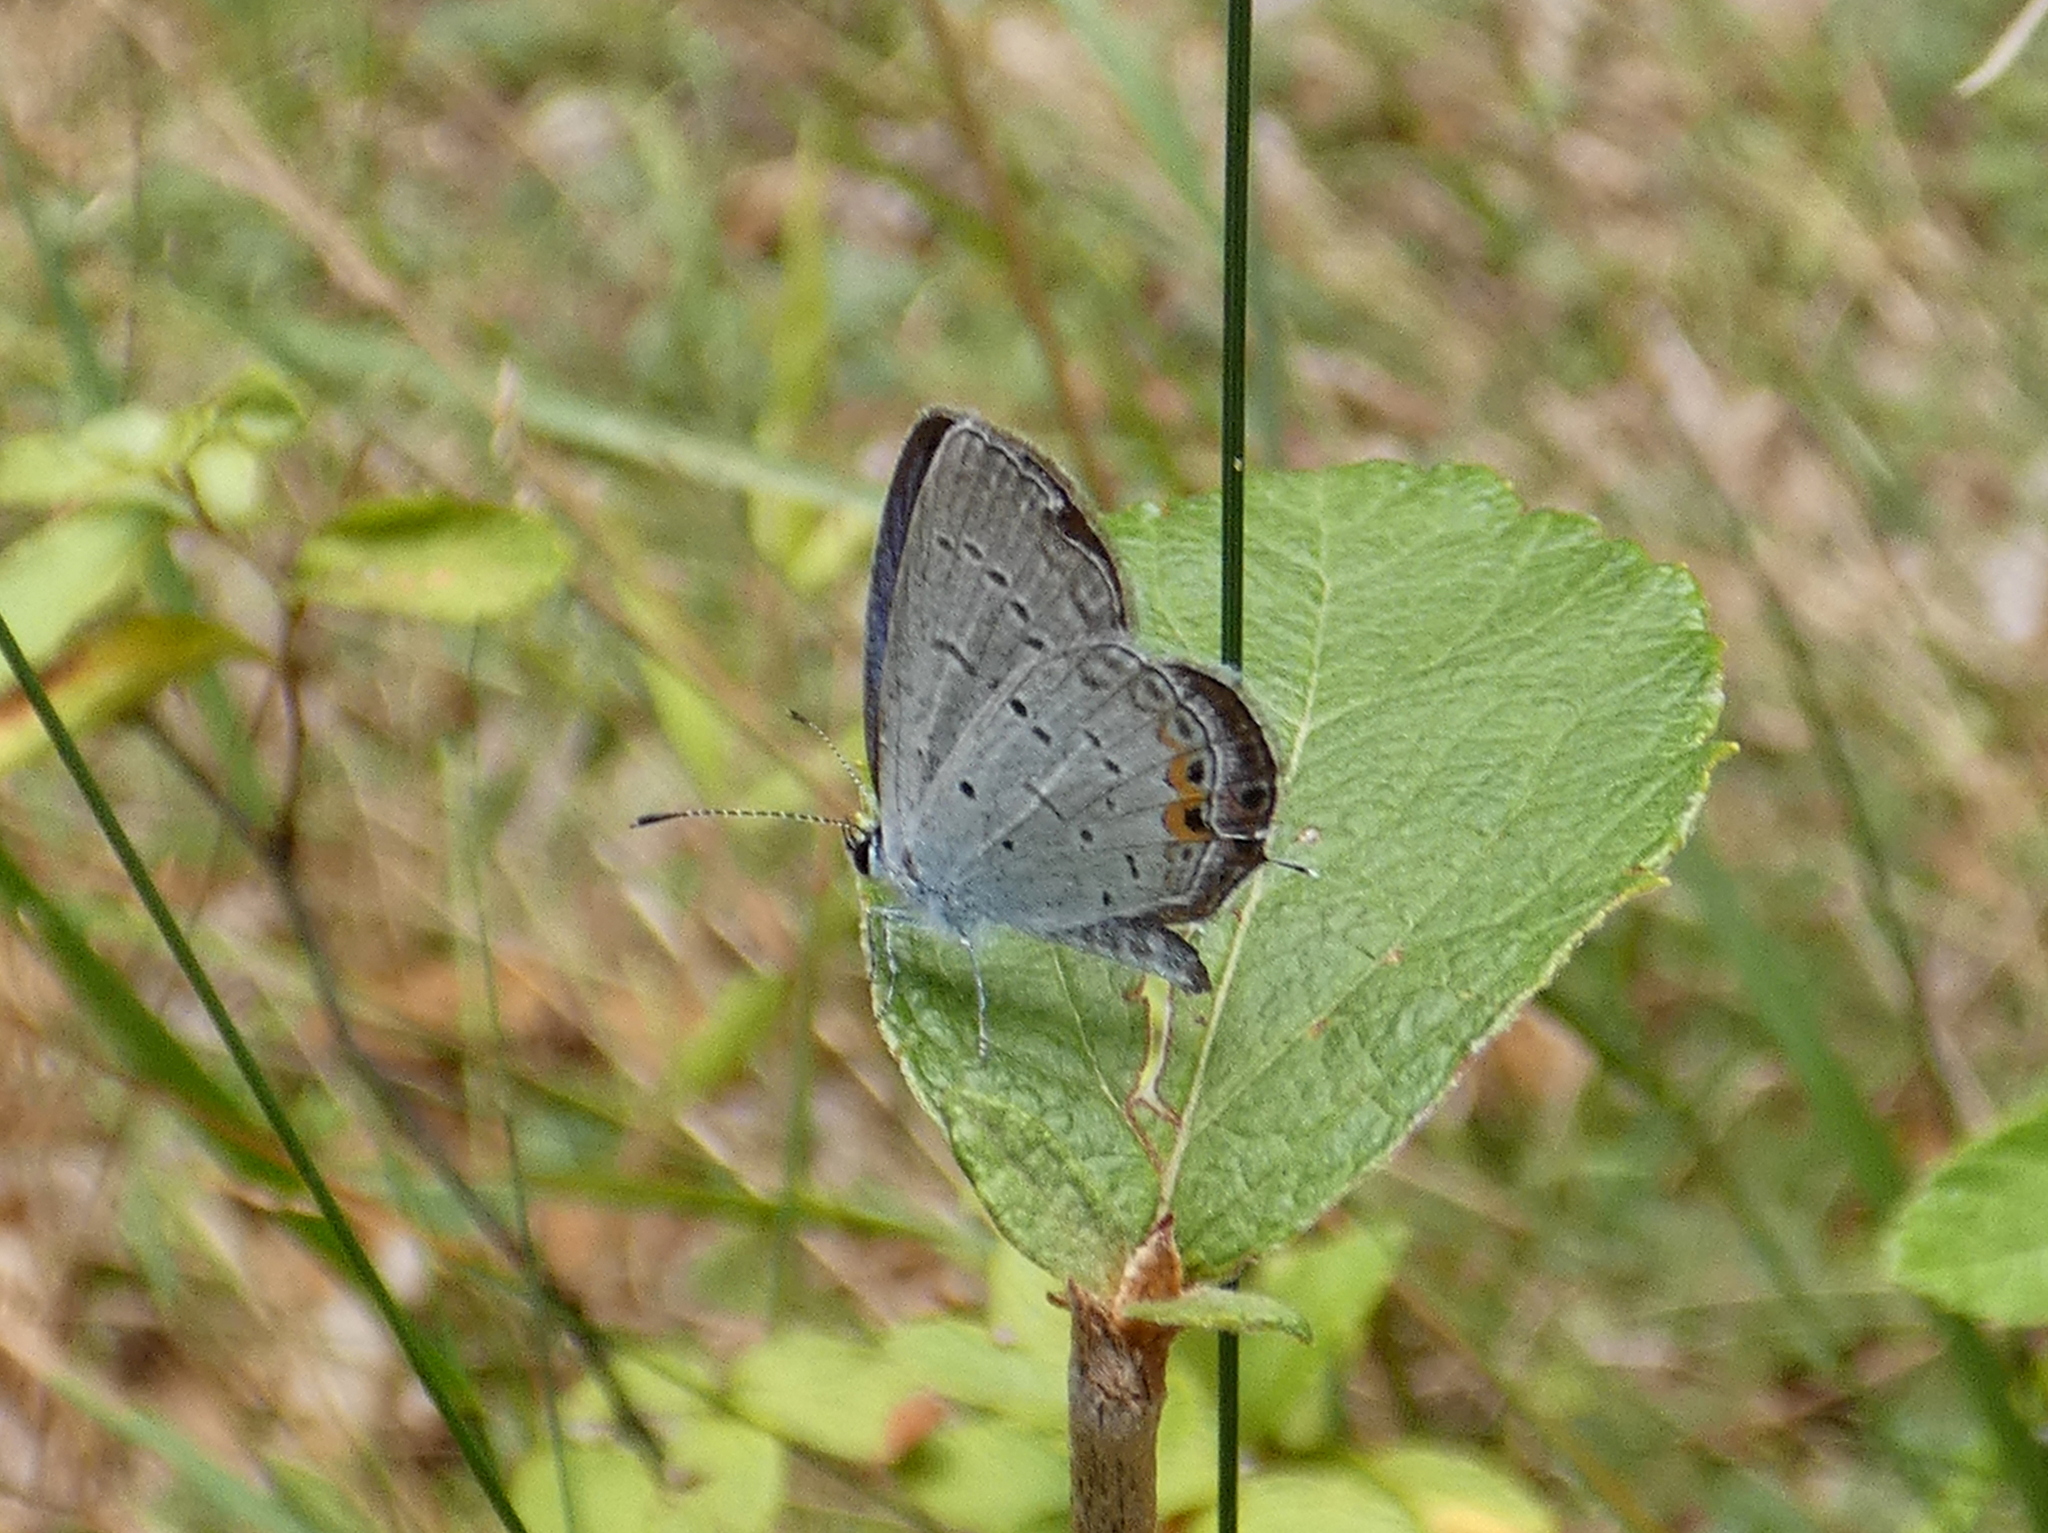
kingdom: Animalia
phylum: Arthropoda
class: Insecta
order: Lepidoptera
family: Lycaenidae
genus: Elkalyce
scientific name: Elkalyce comyntas
